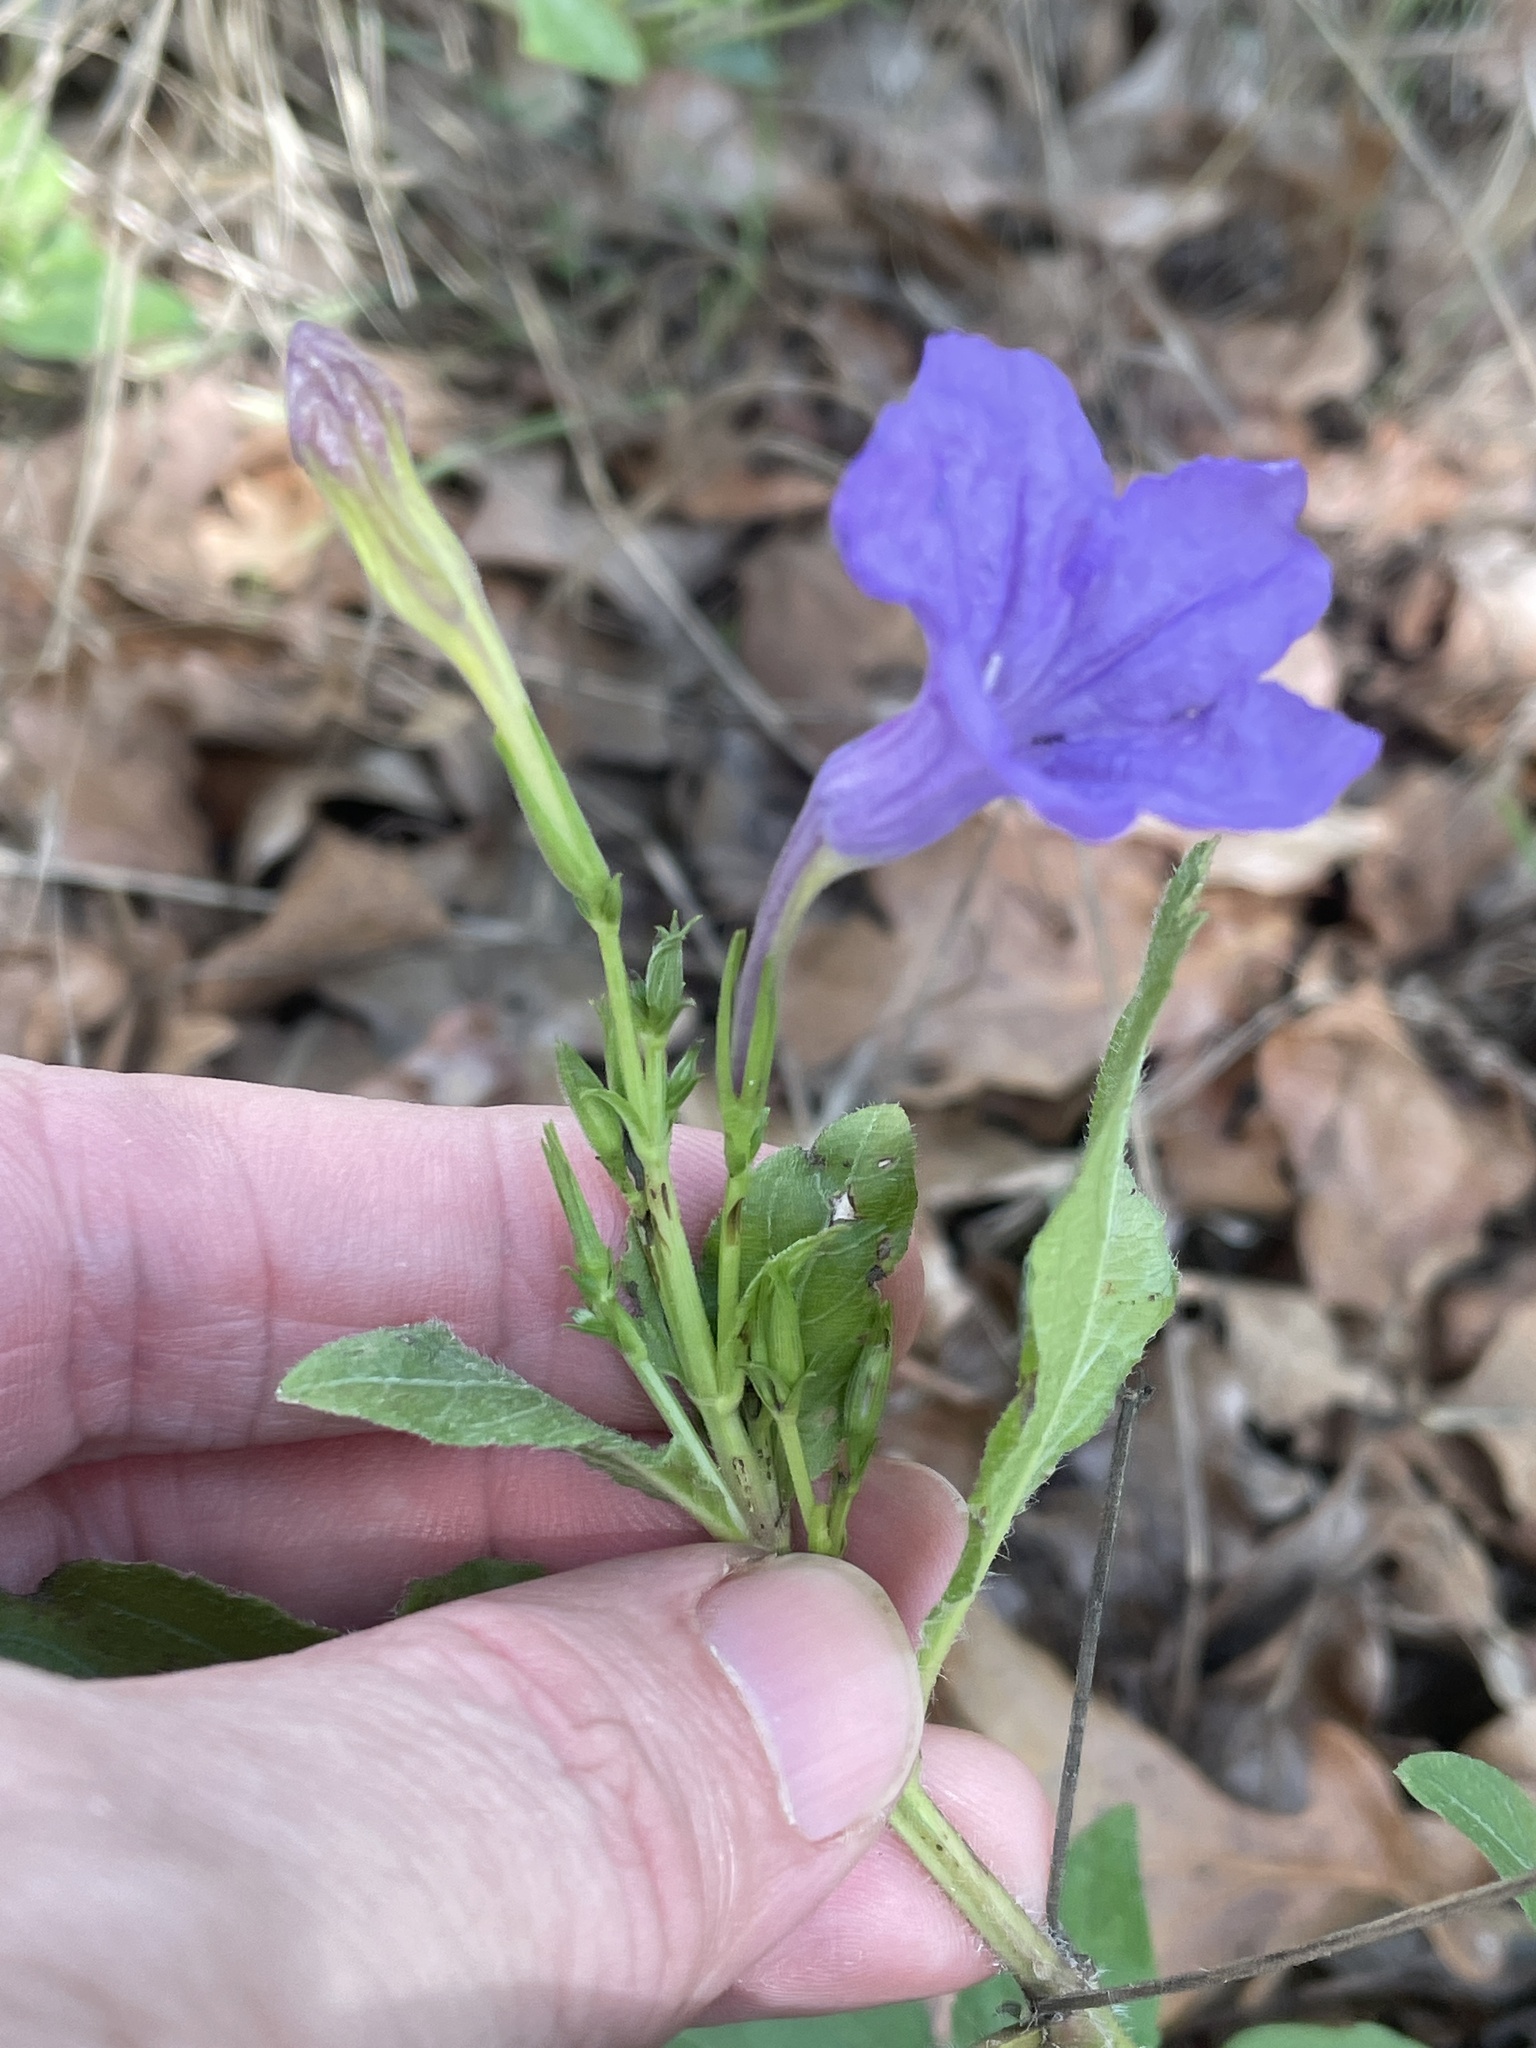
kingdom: Plantae
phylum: Tracheophyta
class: Magnoliopsida
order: Lamiales
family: Acanthaceae
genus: Ruellia
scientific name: Ruellia ciliatiflora
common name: Hairyflower wild petunia
